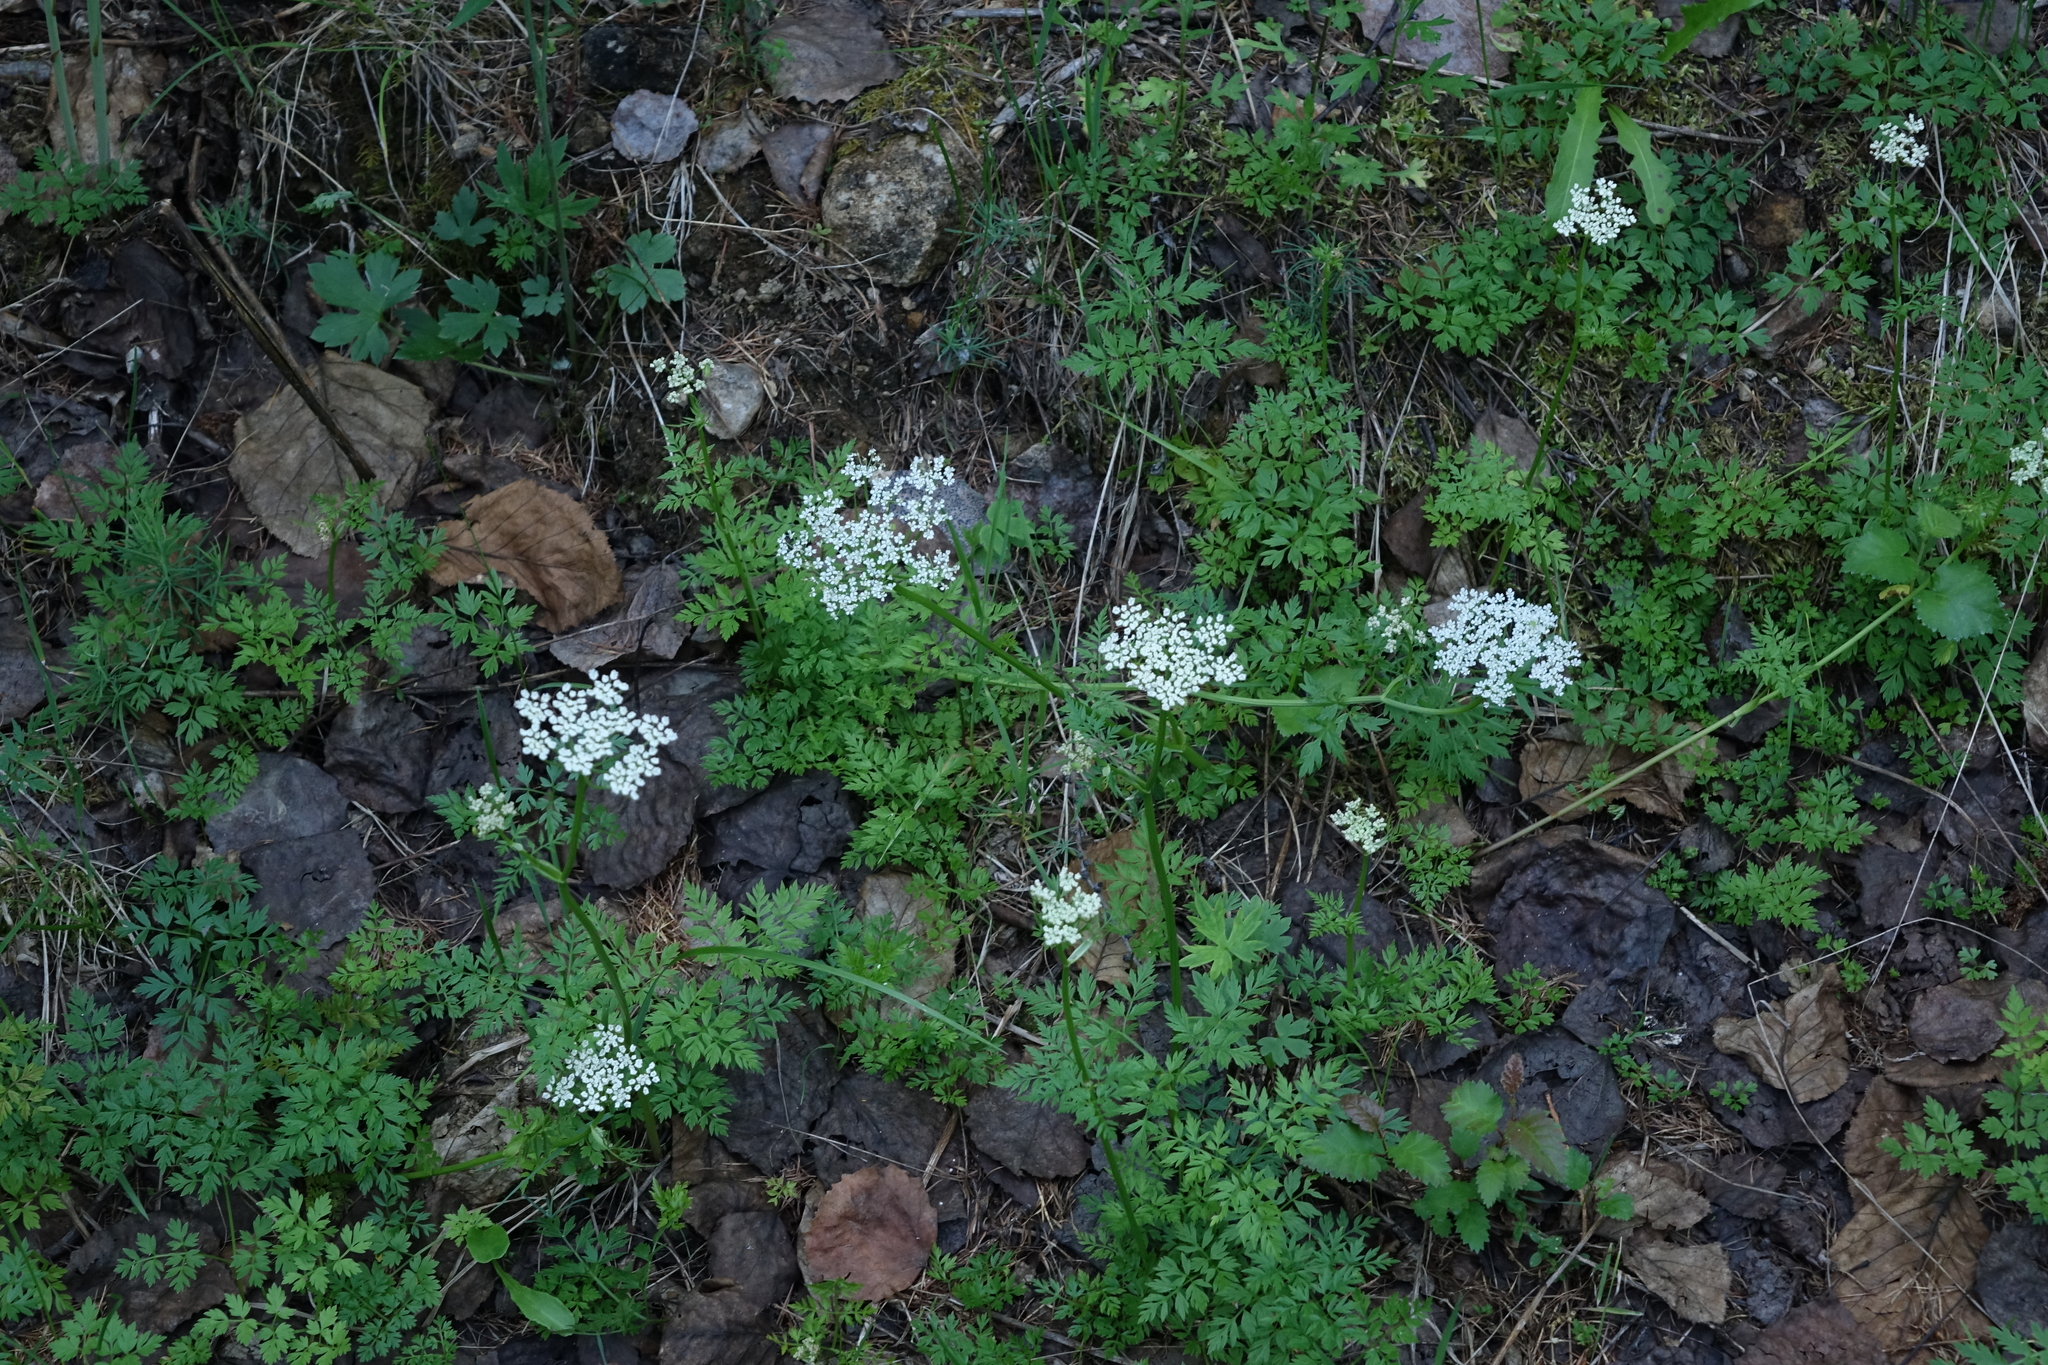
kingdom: Plantae
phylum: Tracheophyta
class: Magnoliopsida
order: Apiales
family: Apiaceae
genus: Aegopodium
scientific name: Aegopodium alpestre
